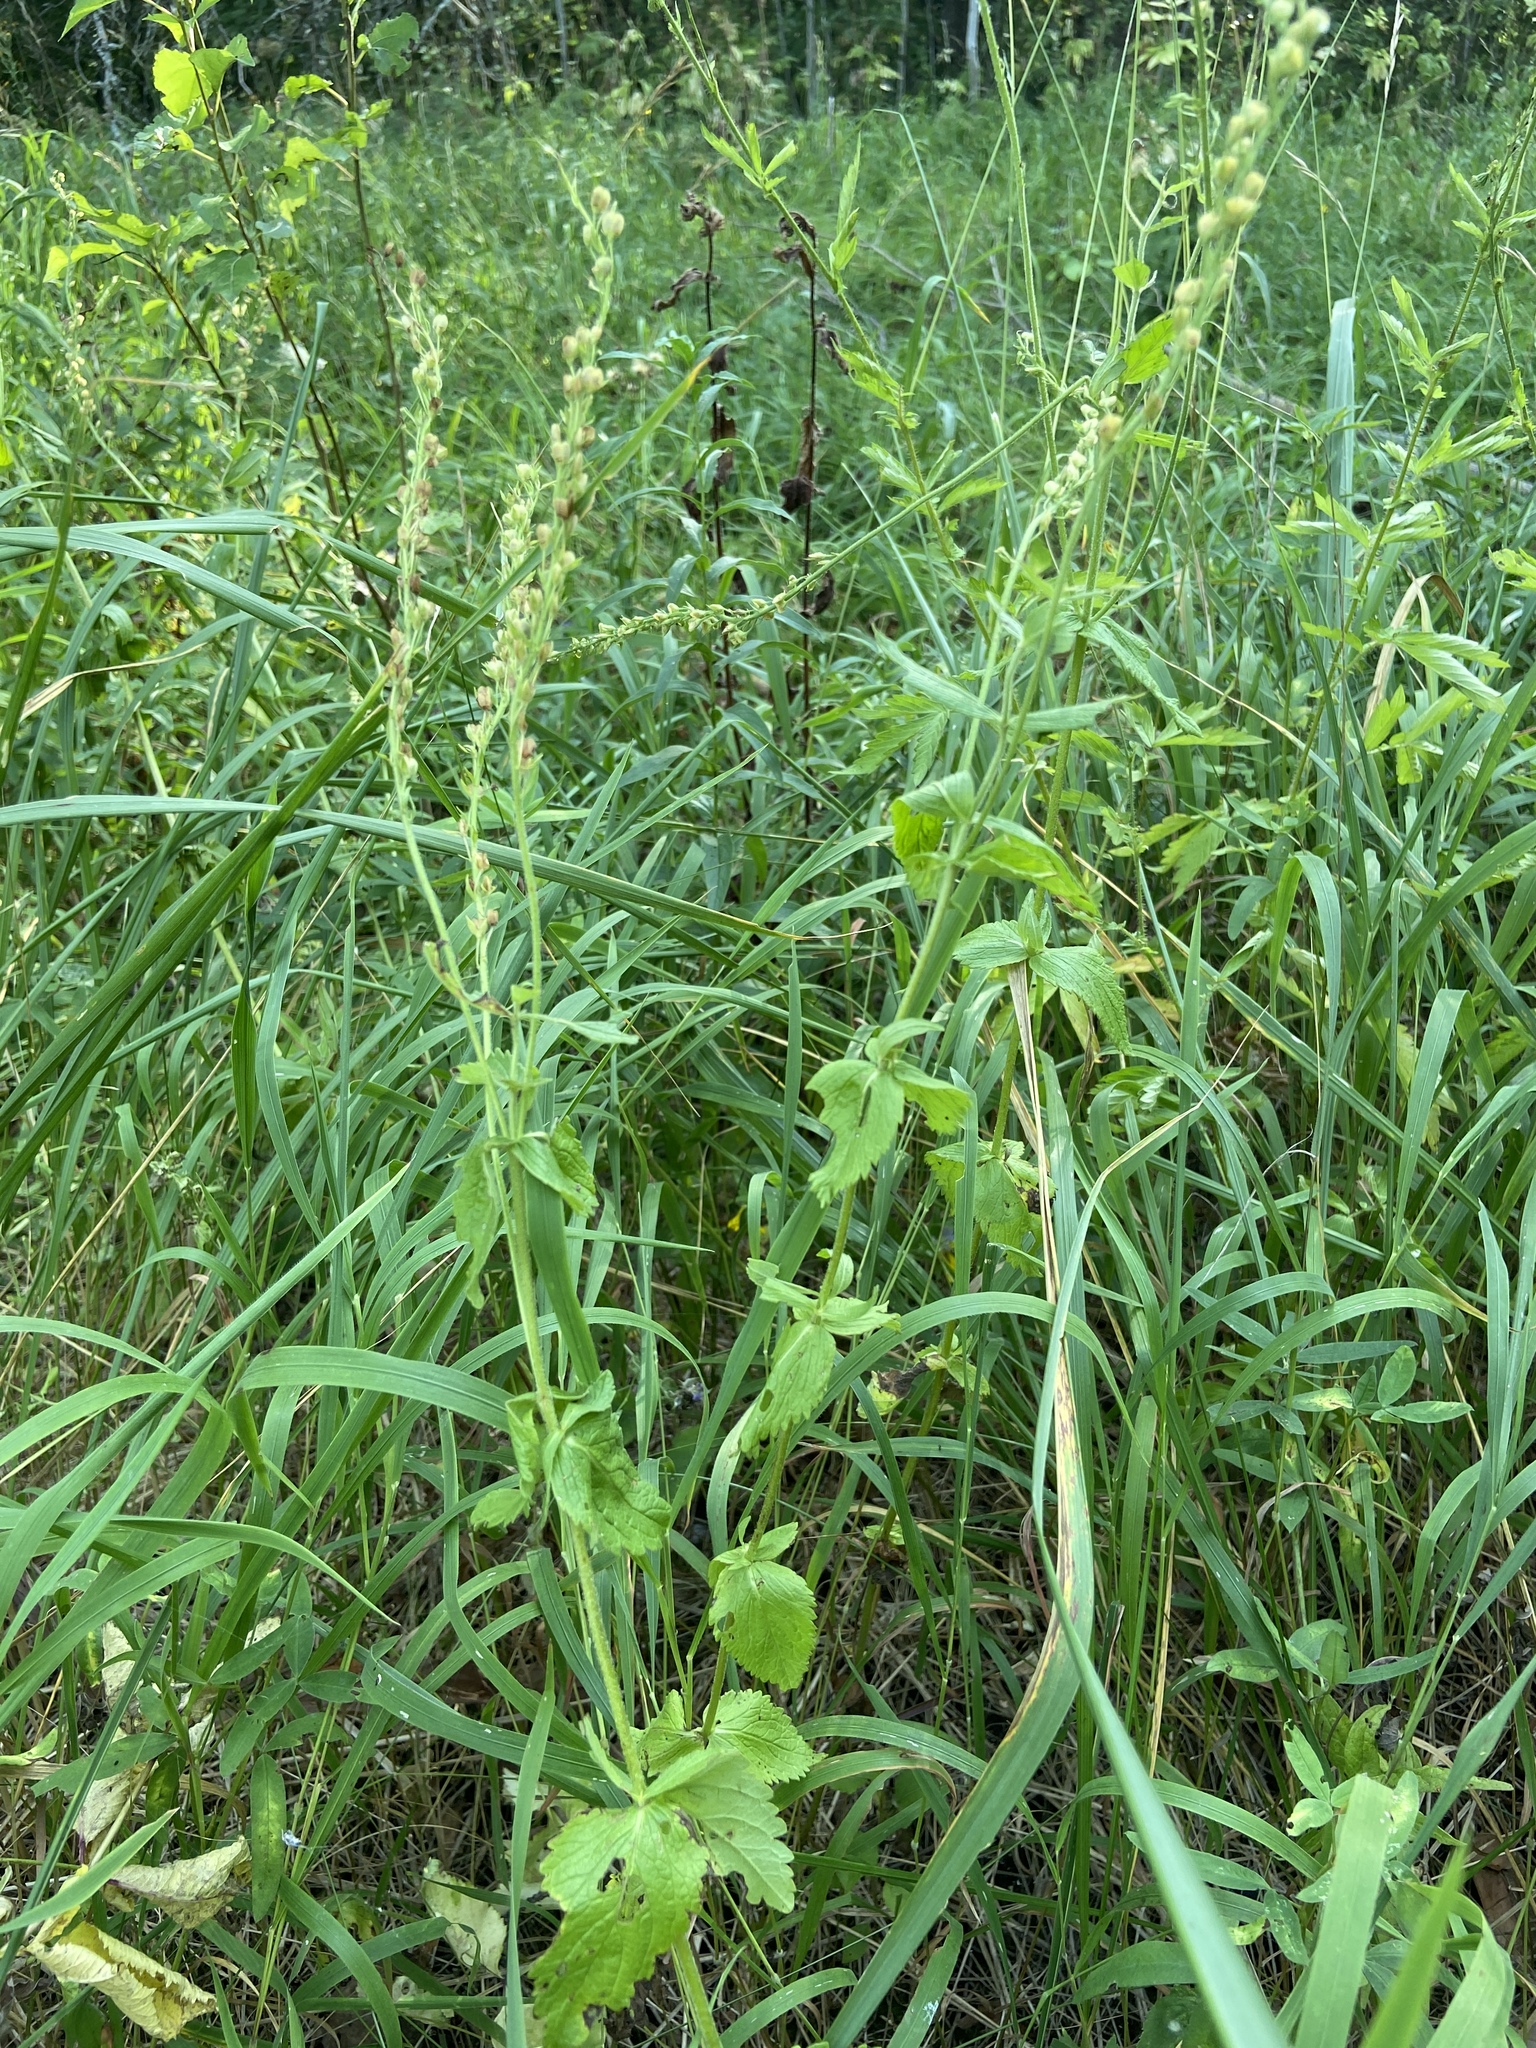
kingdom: Plantae
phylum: Tracheophyta
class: Magnoliopsida
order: Lamiales
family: Plantaginaceae
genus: Veronica
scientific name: Veronica teucrium
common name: Large speedwell
